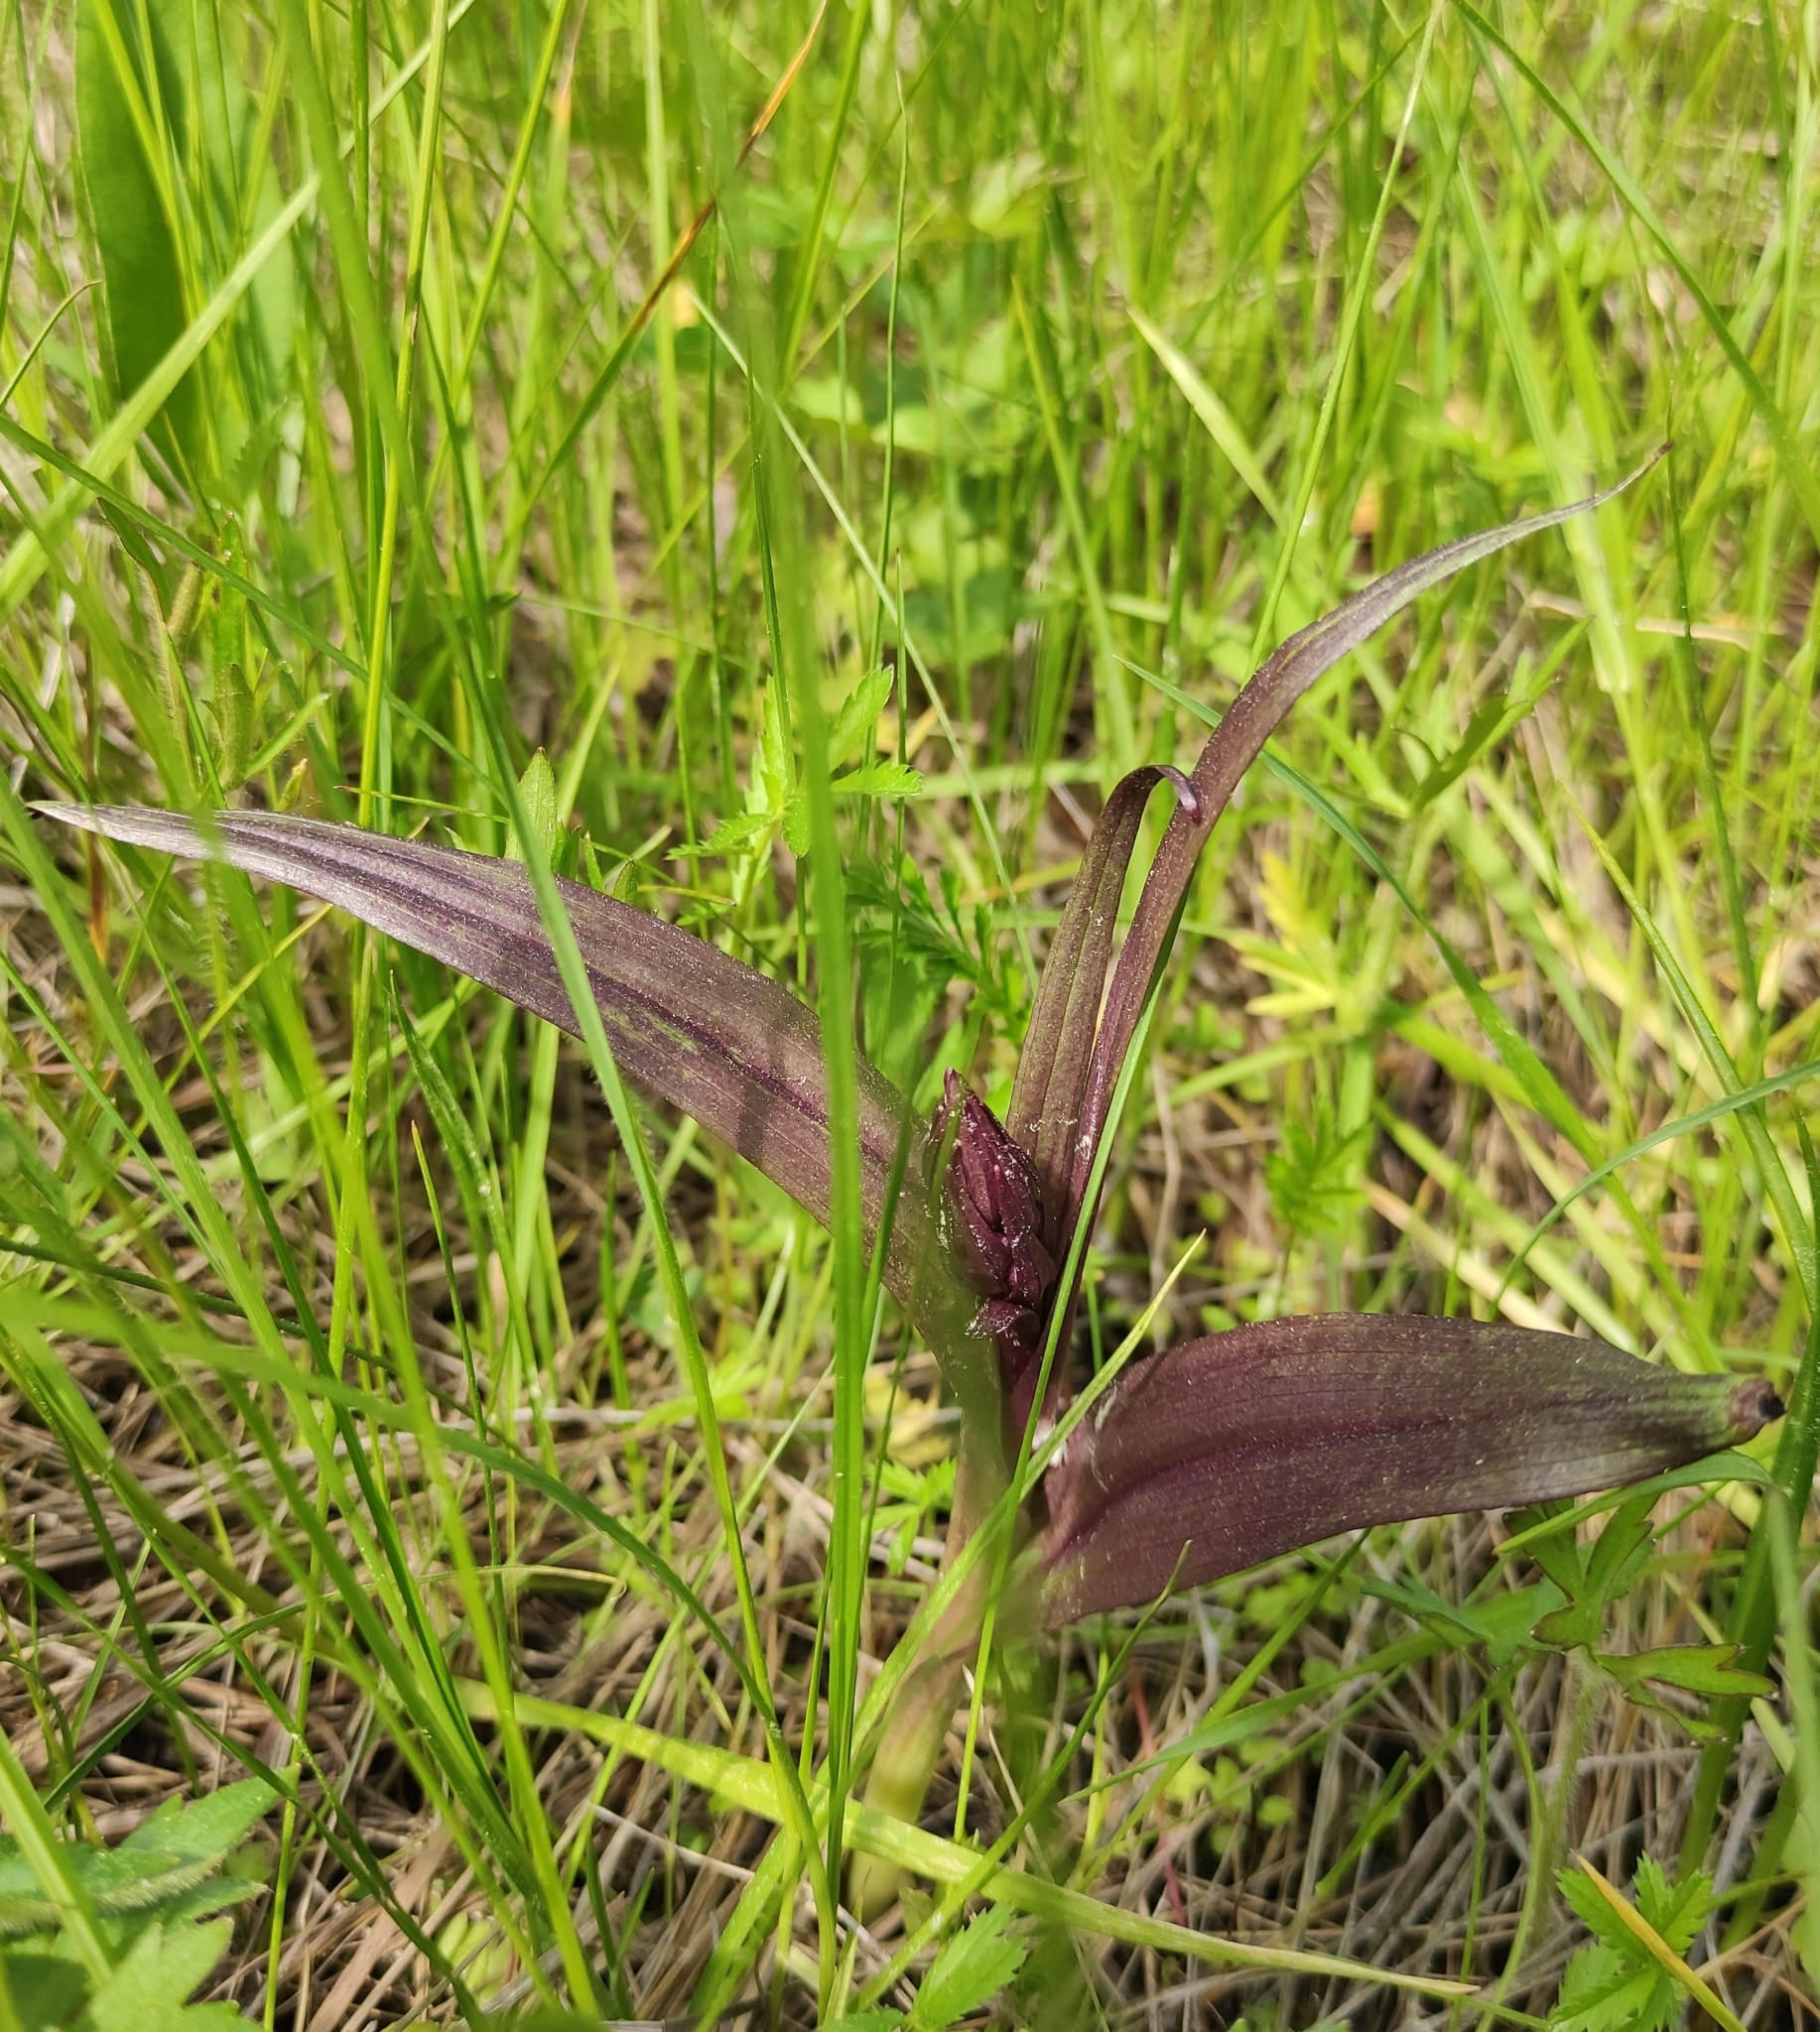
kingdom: Plantae
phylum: Tracheophyta
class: Liliopsida
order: Asparagales
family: Orchidaceae
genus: Dactylorhiza
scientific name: Dactylorhiza incarnata
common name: Early marsh-orchid
